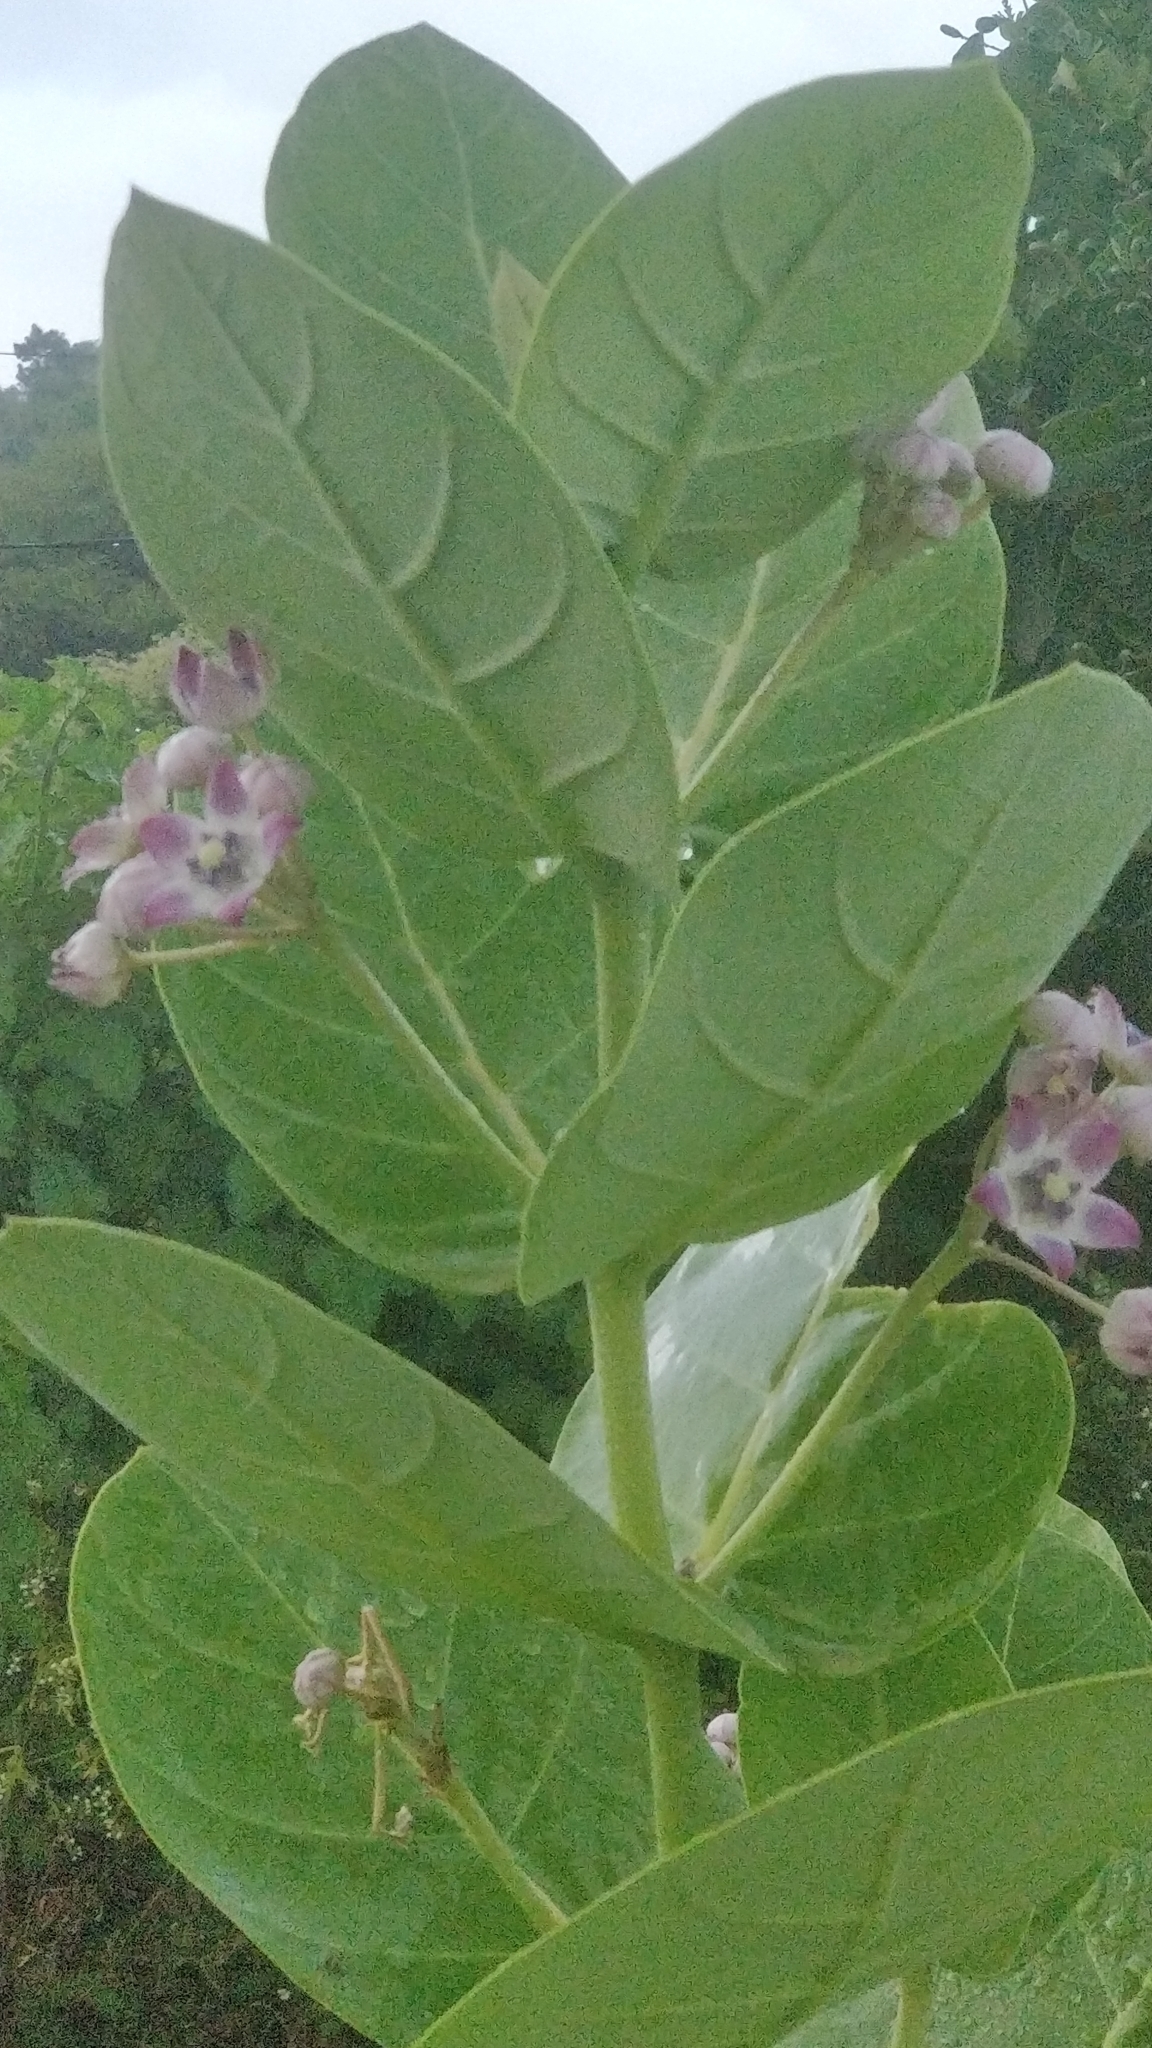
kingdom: Plantae
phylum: Tracheophyta
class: Magnoliopsida
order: Gentianales
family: Apocynaceae
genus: Calotropis
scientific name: Calotropis procera
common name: Roostertree
